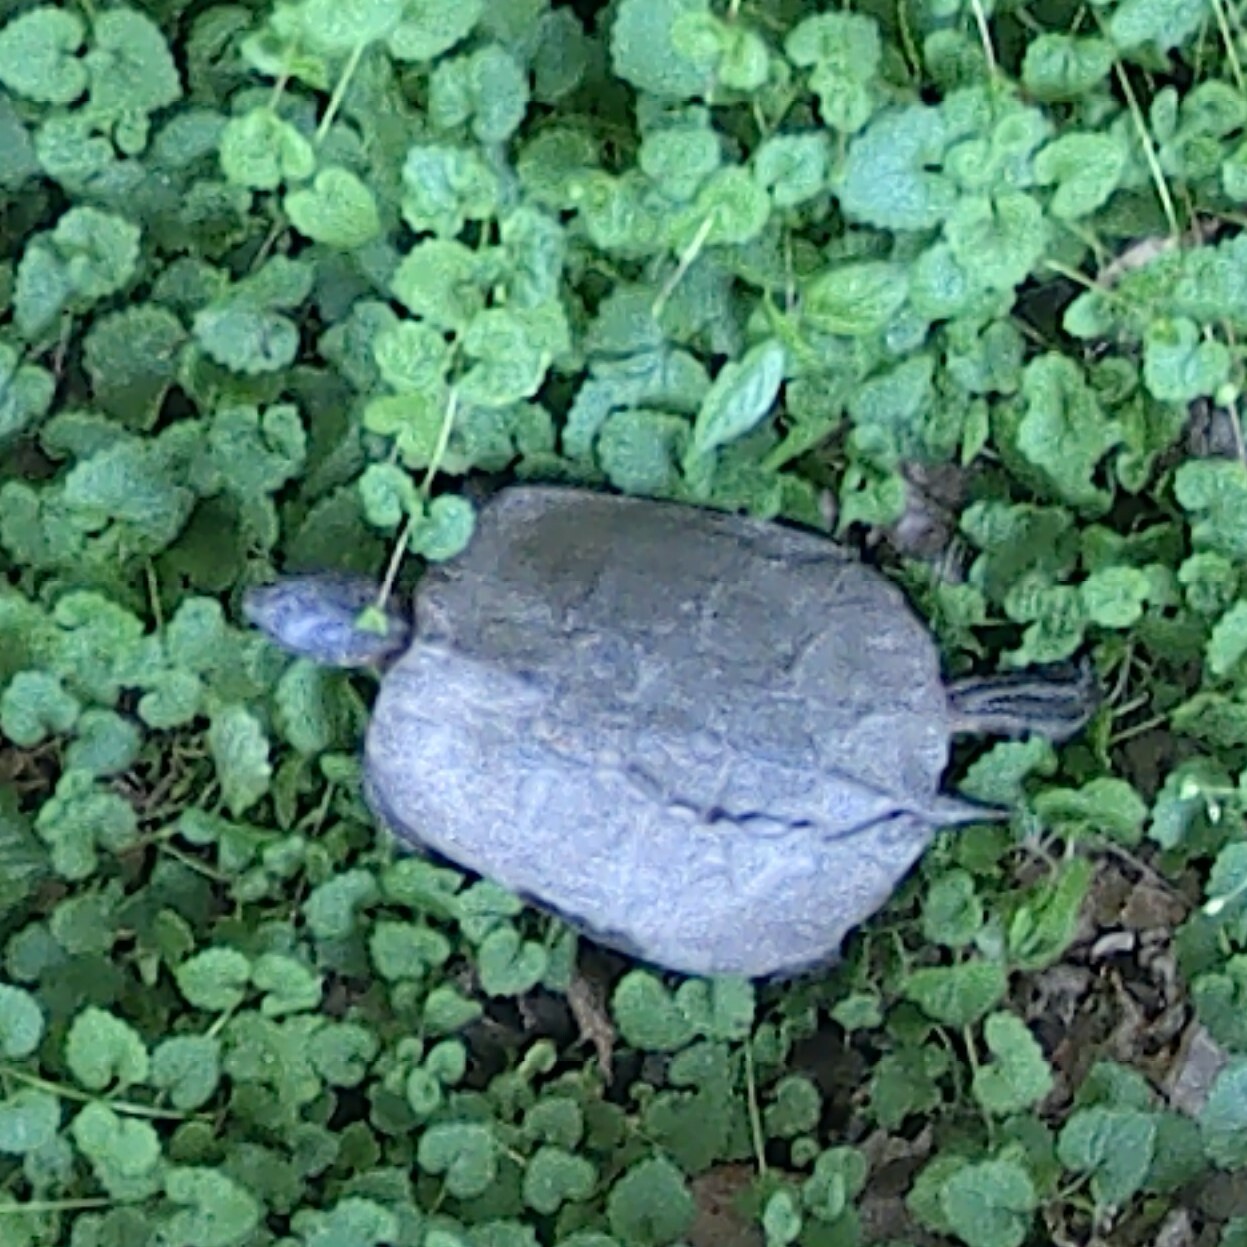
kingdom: Animalia
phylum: Chordata
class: Testudines
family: Emydidae
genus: Glyptemys
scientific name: Glyptemys insculpta
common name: Wood turtle
